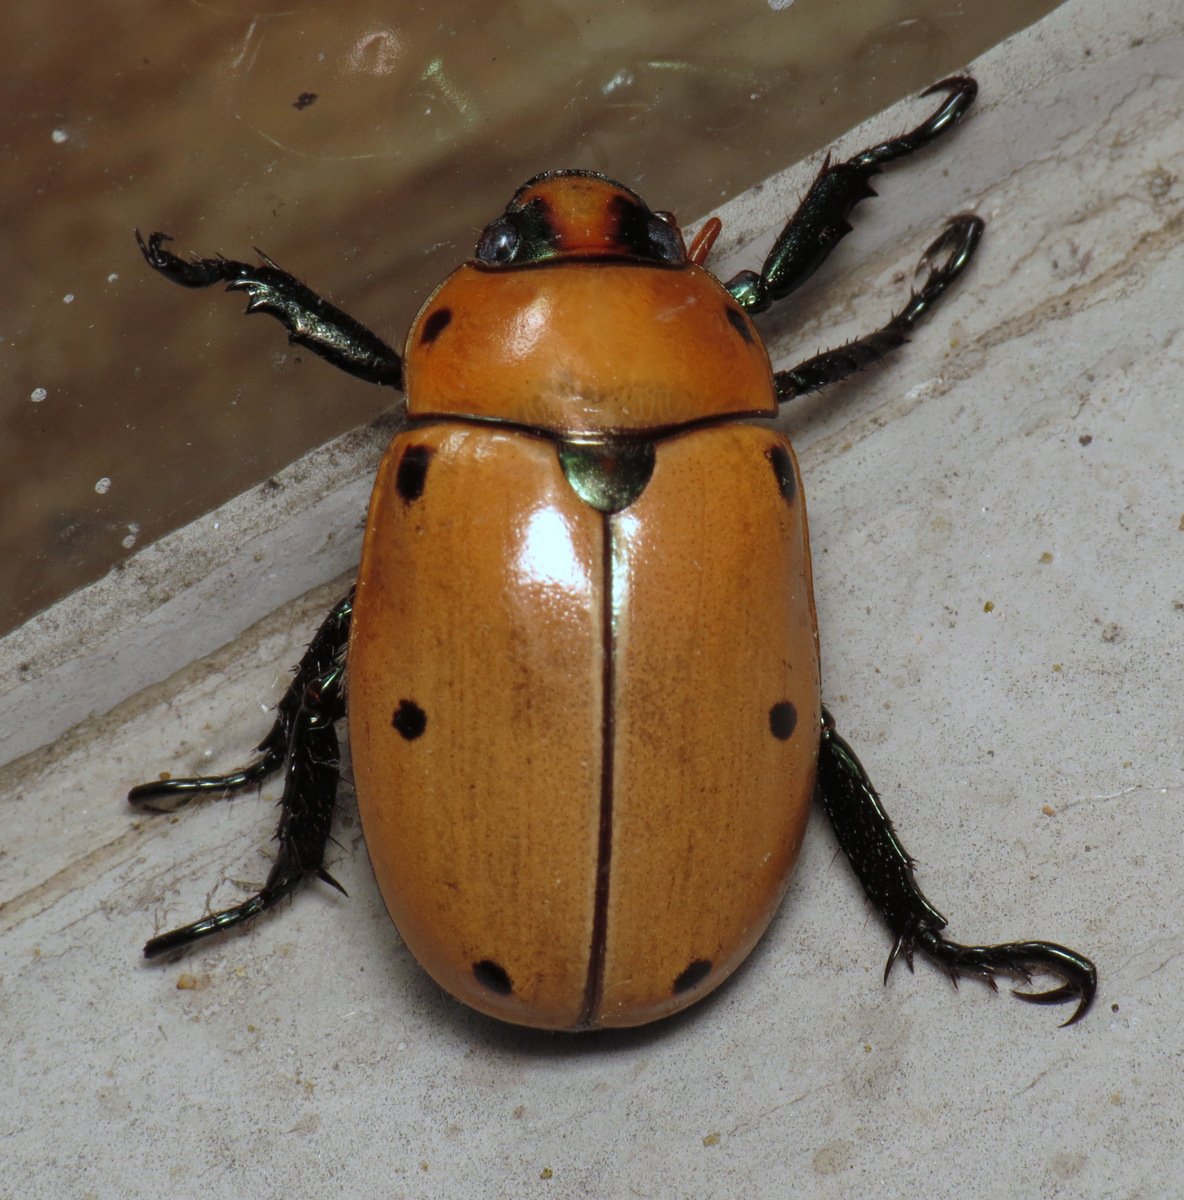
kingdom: Animalia
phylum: Arthropoda
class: Insecta
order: Coleoptera
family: Scarabaeidae
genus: Pelidnota
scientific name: Pelidnota punctata
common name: Grapevine beetle
